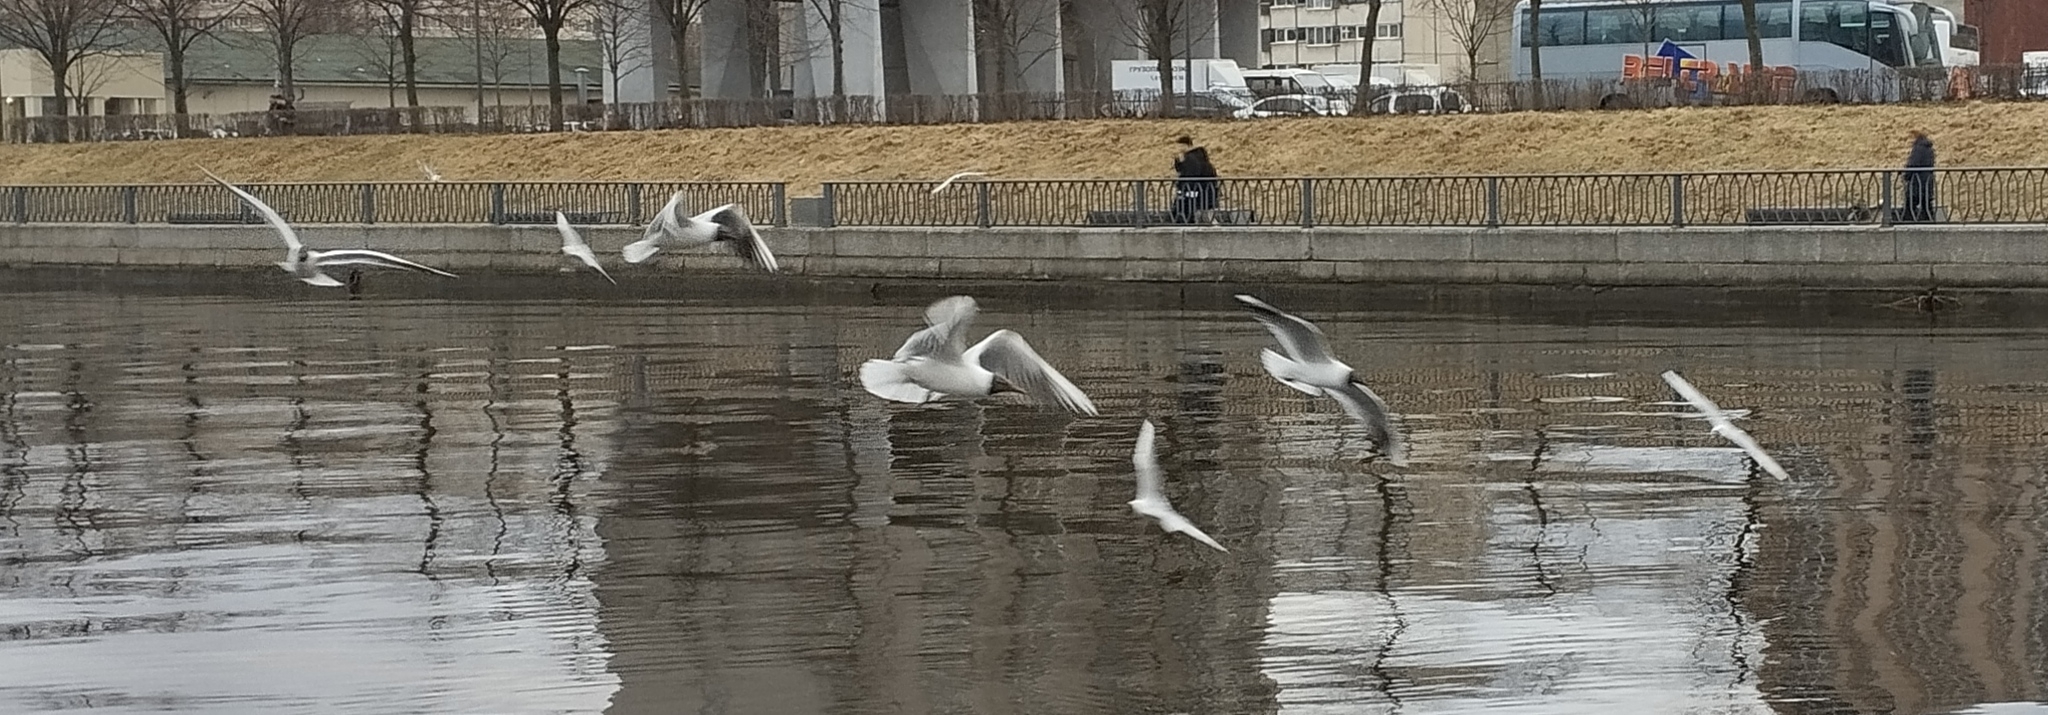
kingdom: Animalia
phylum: Chordata
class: Aves
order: Charadriiformes
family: Laridae
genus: Chroicocephalus
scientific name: Chroicocephalus ridibundus
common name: Black-headed gull
